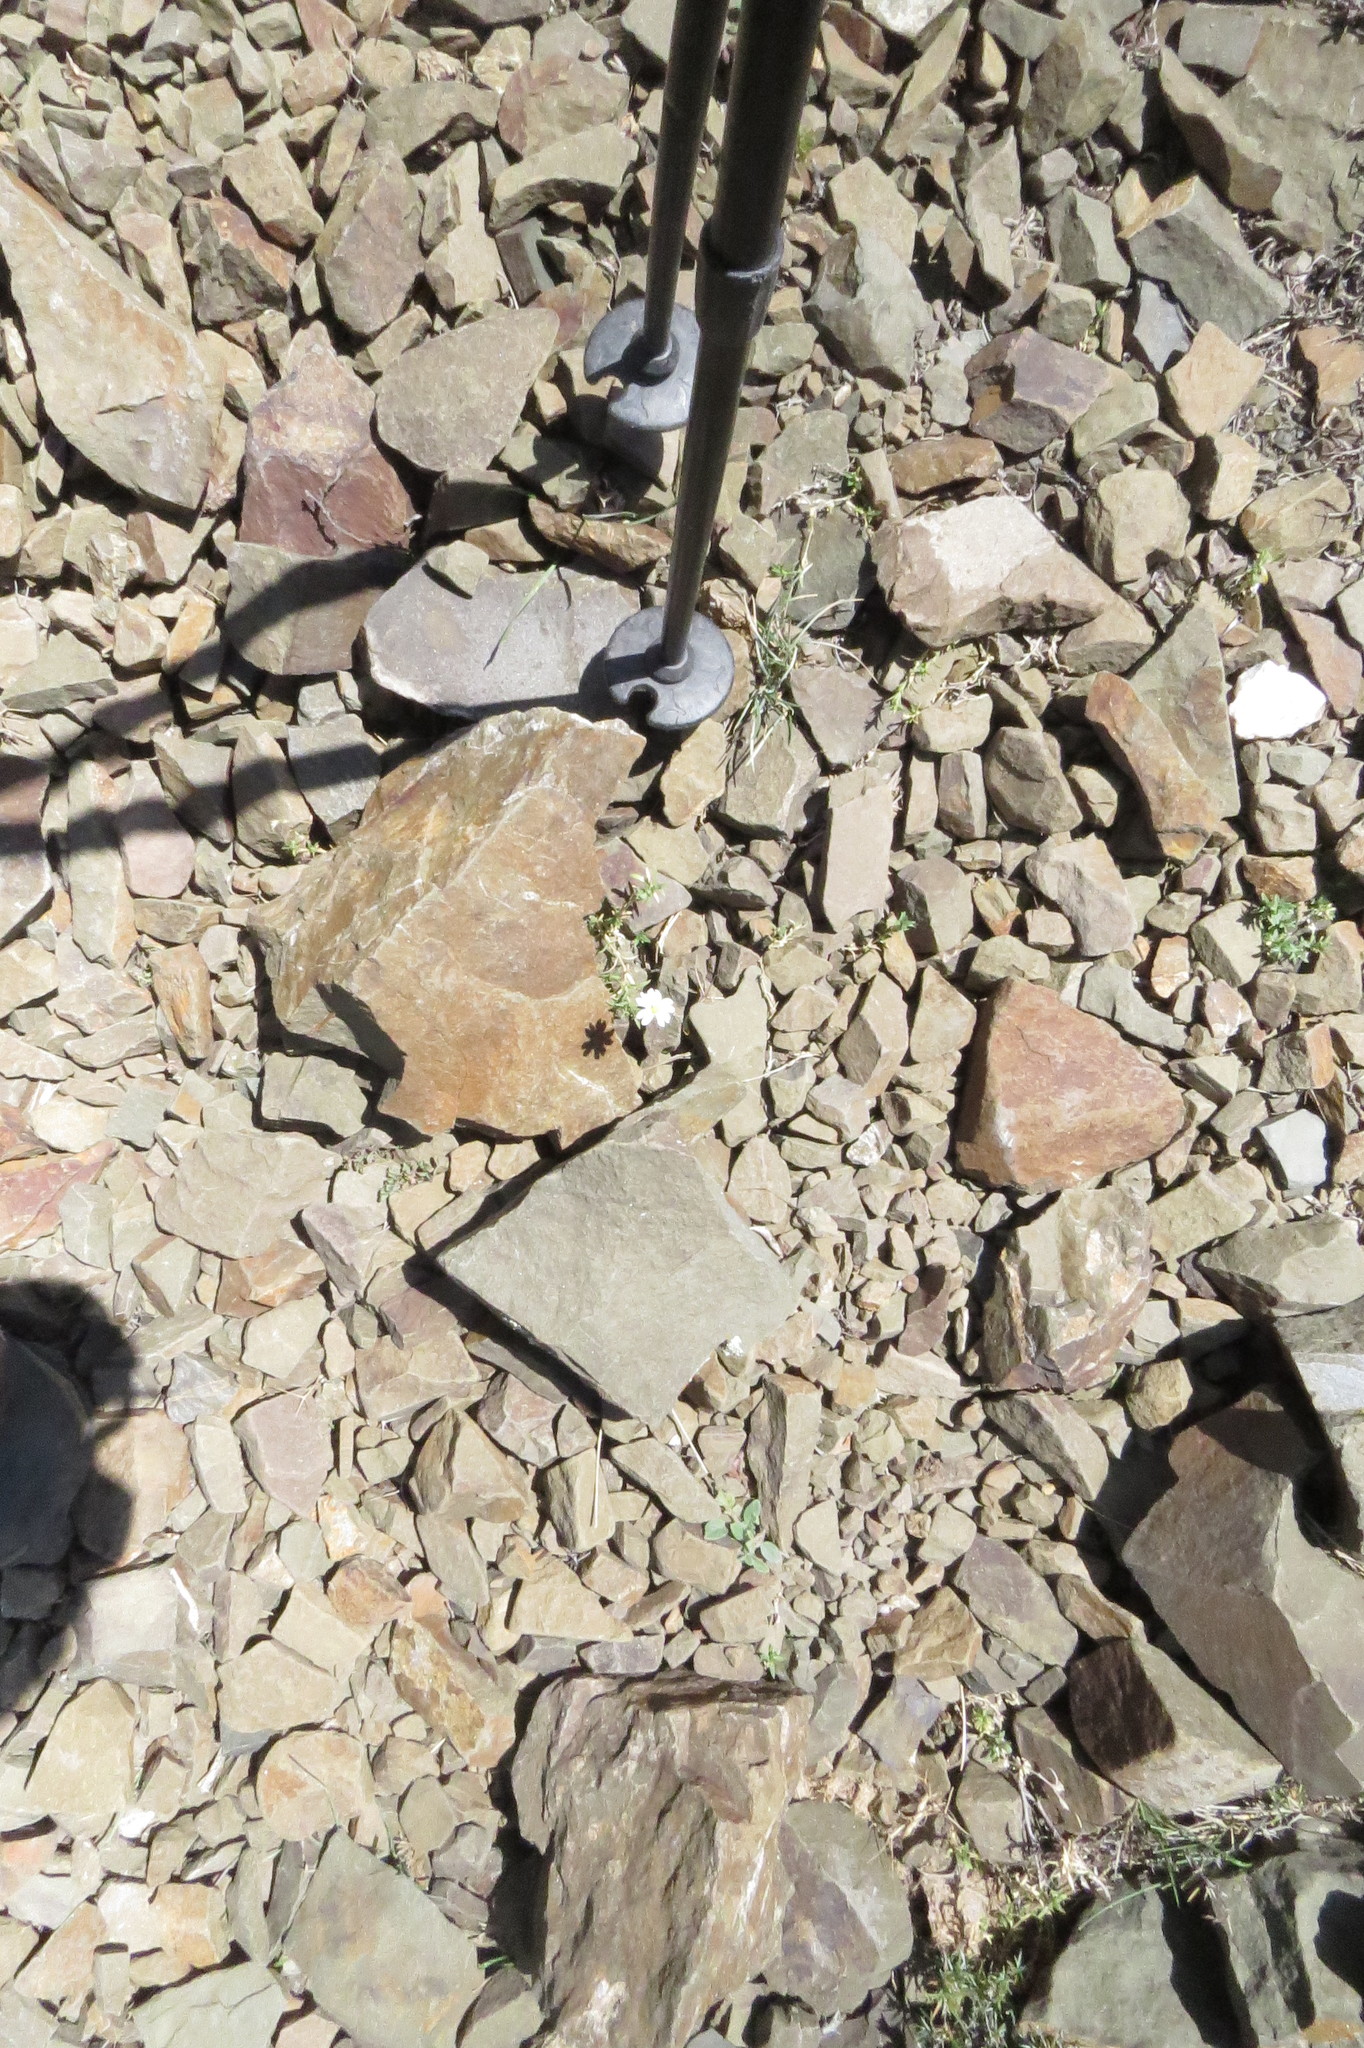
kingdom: Plantae
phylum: Tracheophyta
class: Magnoliopsida
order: Caryophyllales
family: Caryophyllaceae
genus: Cerastium
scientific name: Cerastium arvense
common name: Field mouse-ear
